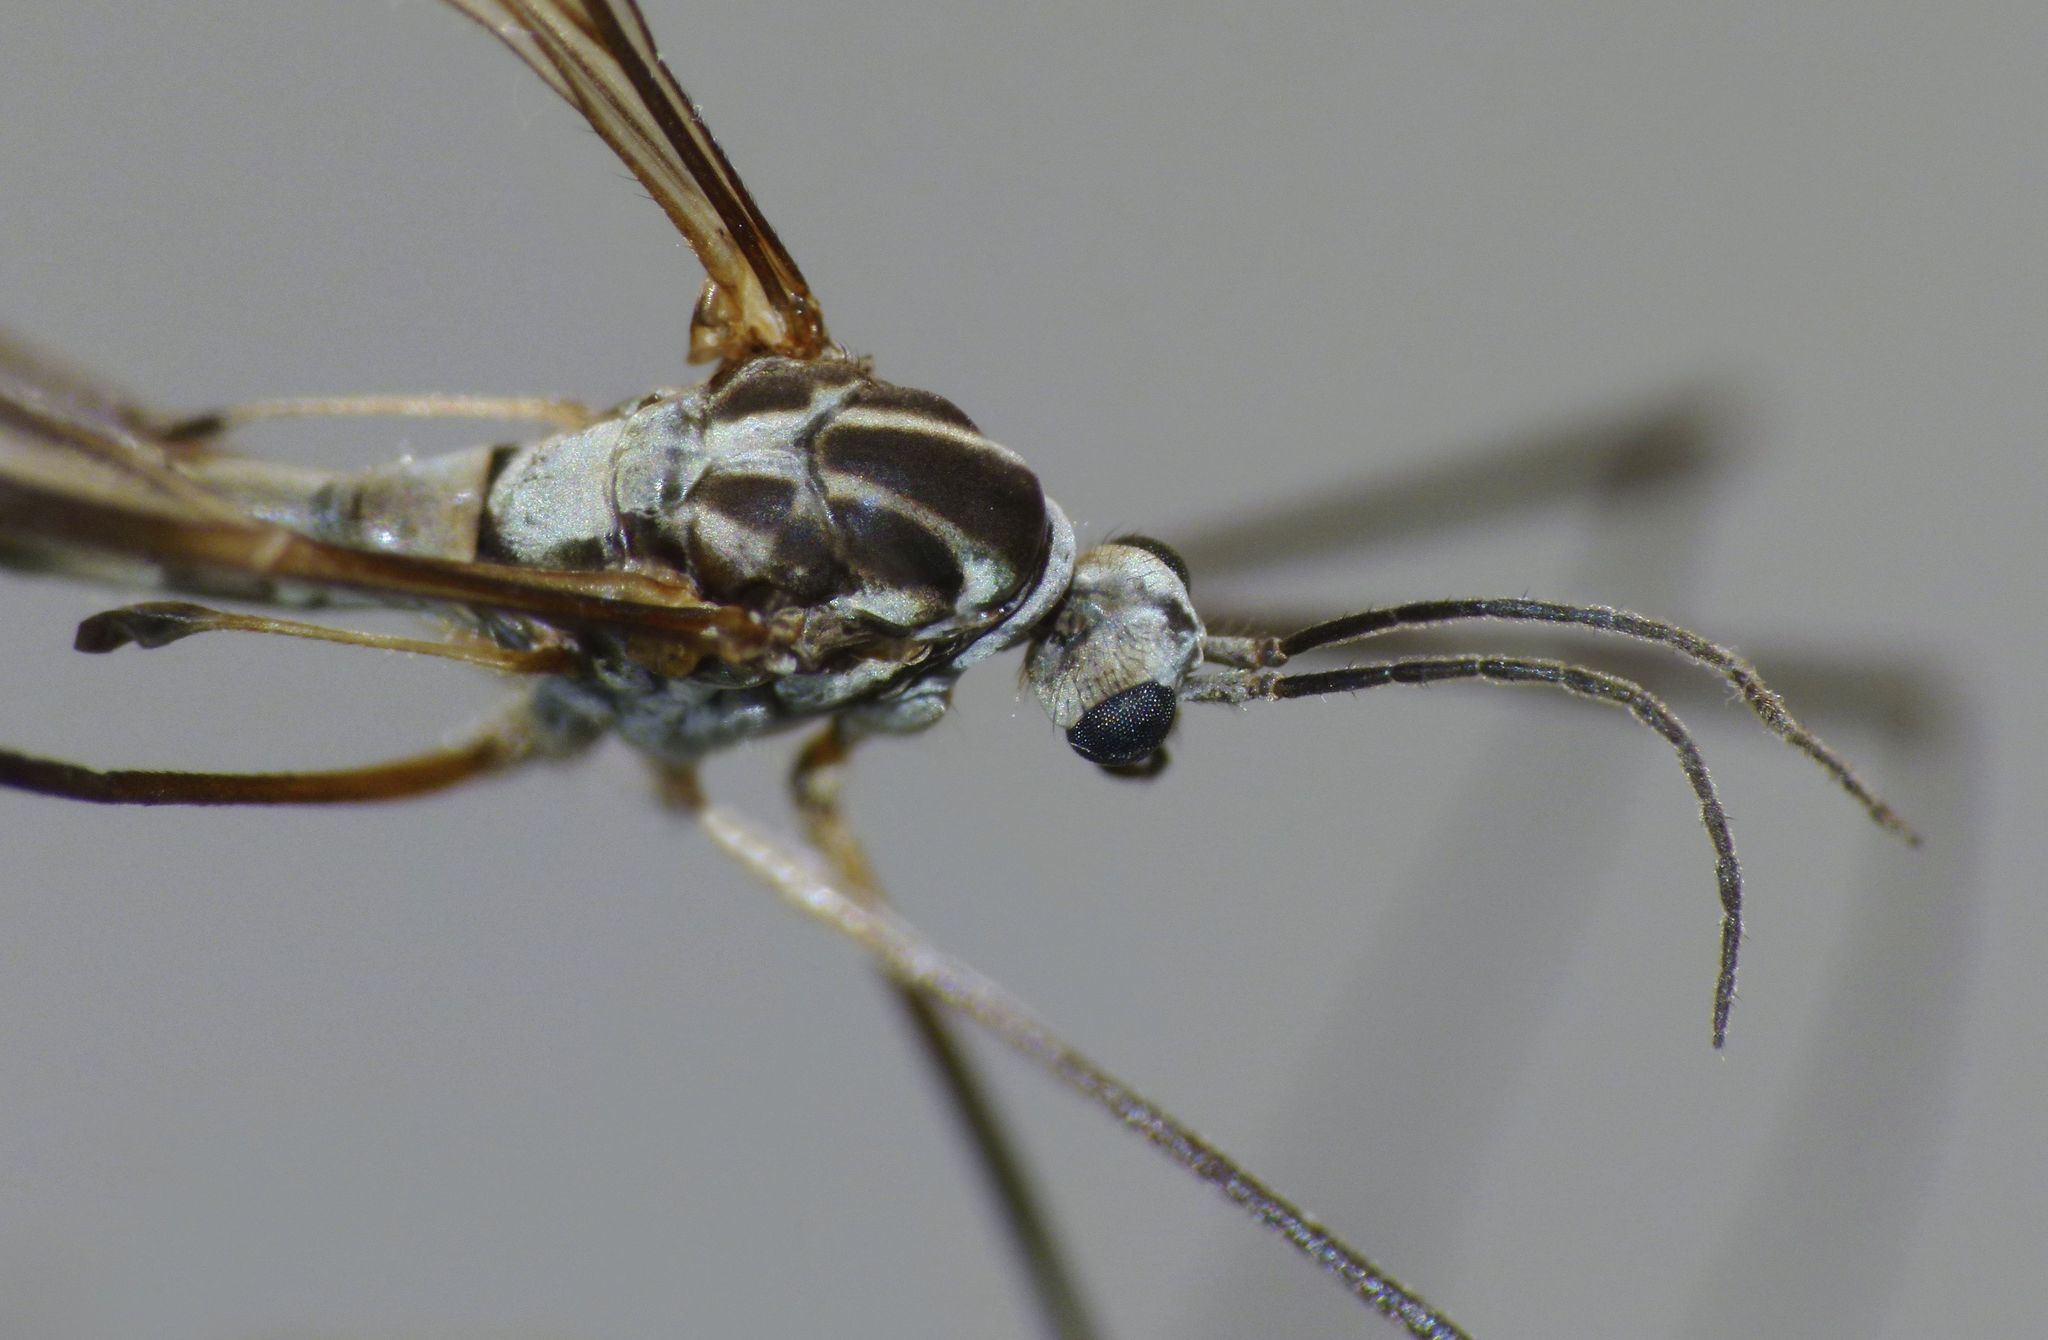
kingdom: Animalia
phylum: Arthropoda
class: Insecta
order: Diptera
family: Tipulidae
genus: Dolichopeza
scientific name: Dolichopeza fenwicki
